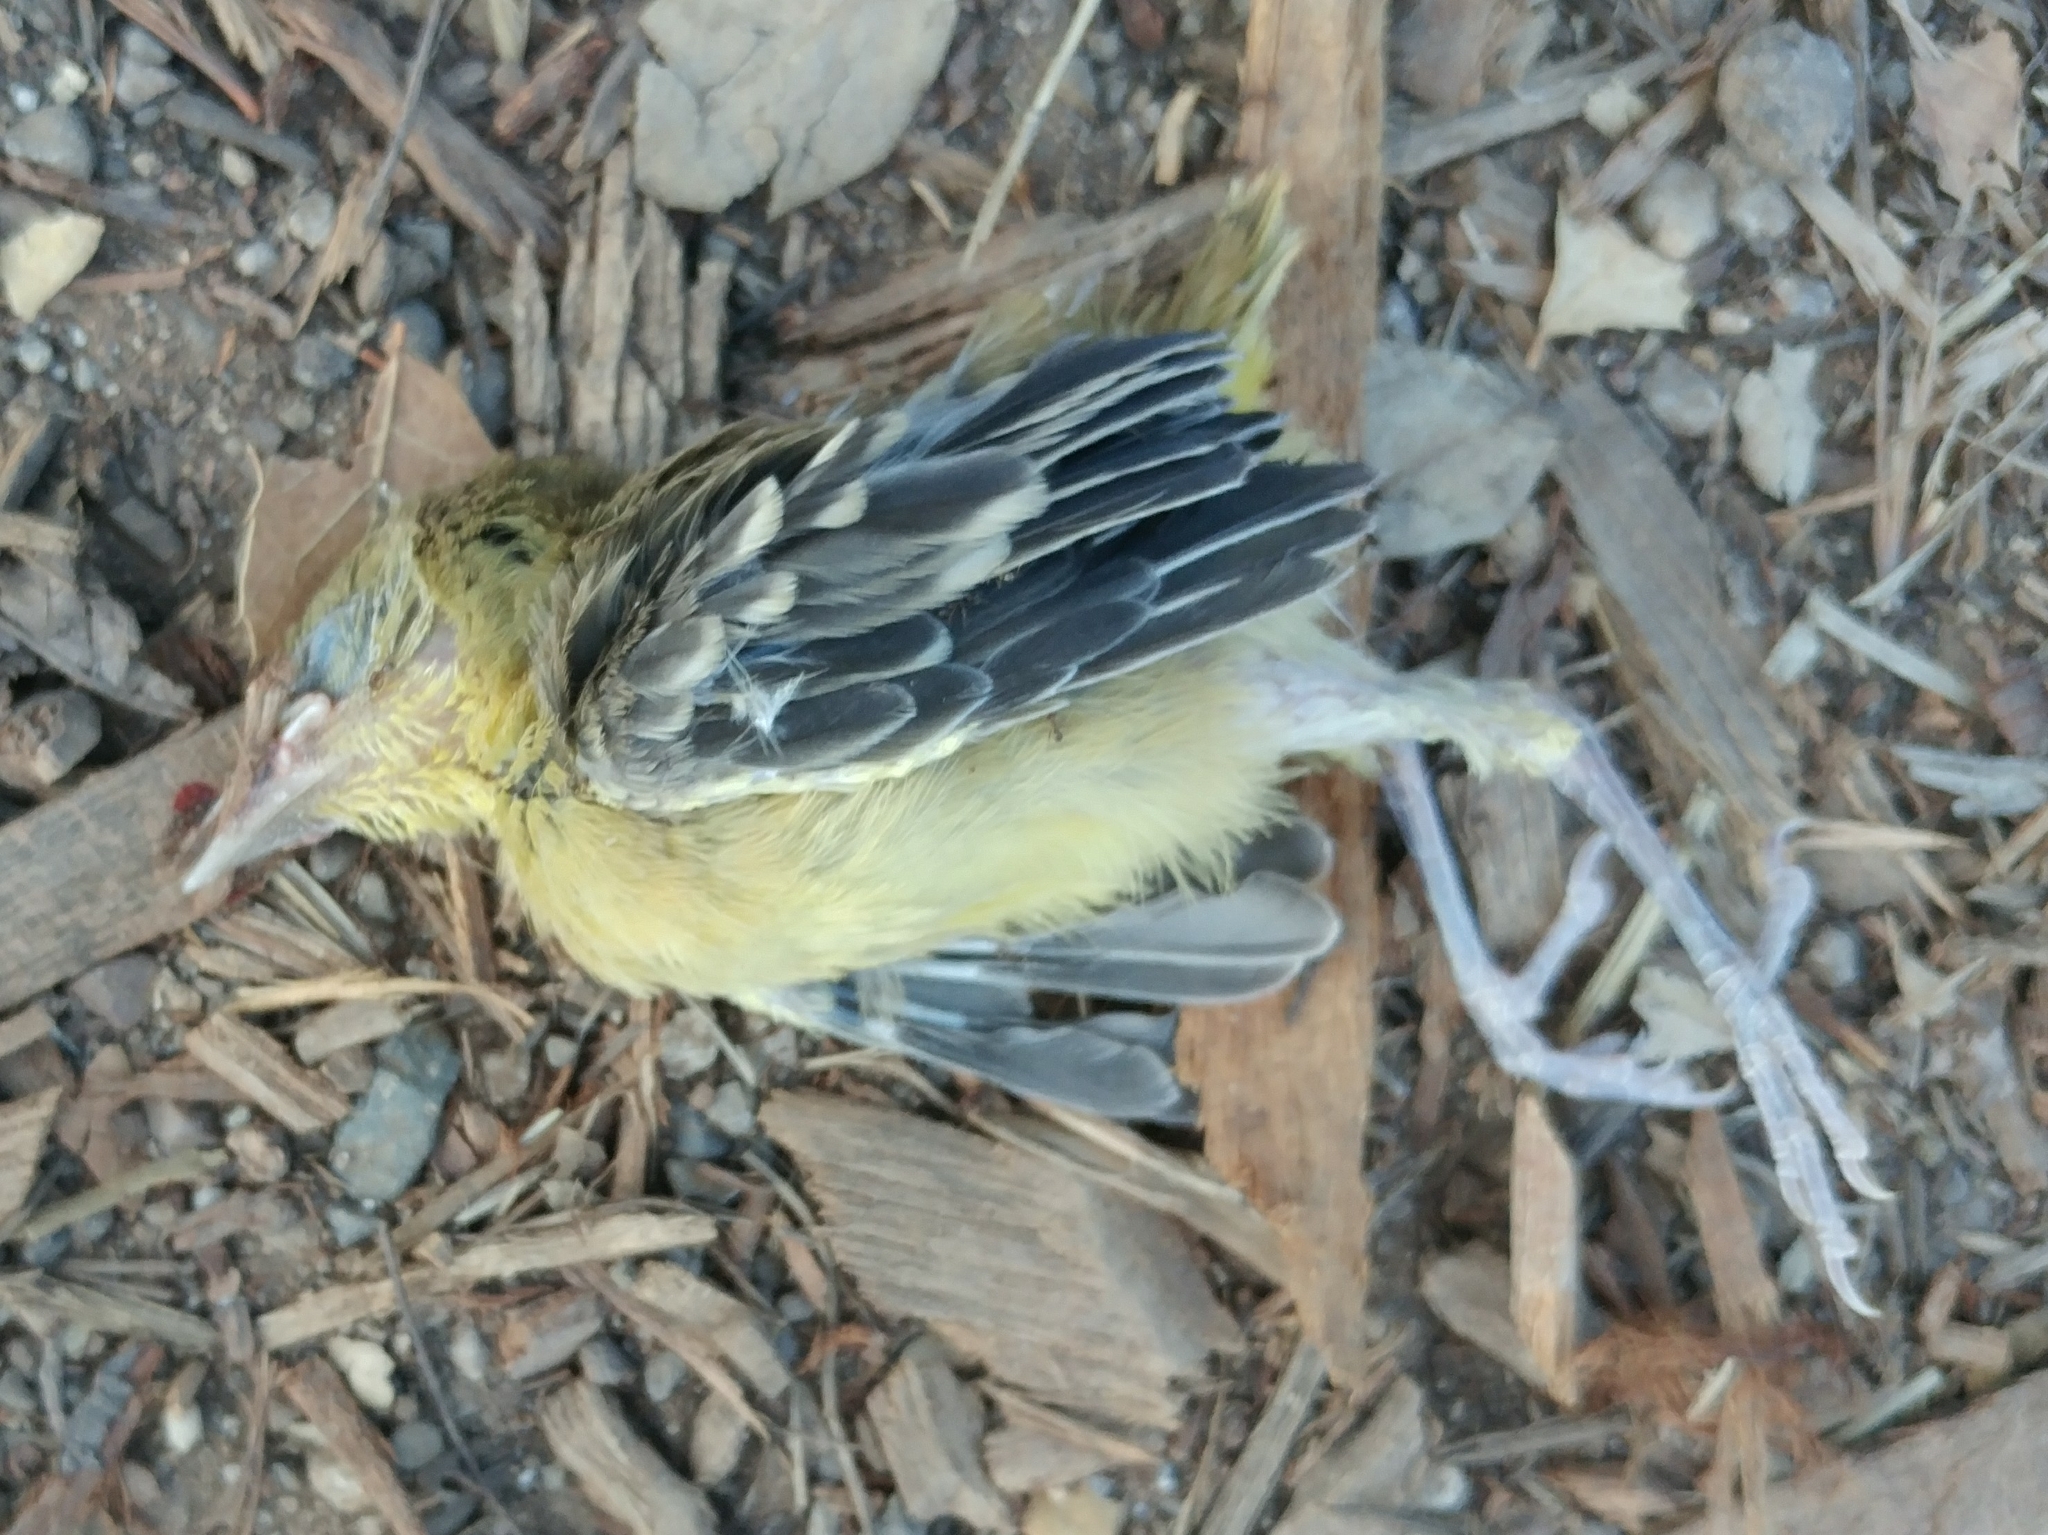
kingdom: Animalia
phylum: Chordata
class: Aves
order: Passeriformes
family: Icteridae
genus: Icterus
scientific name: Icterus cucullatus
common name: Hooded oriole
